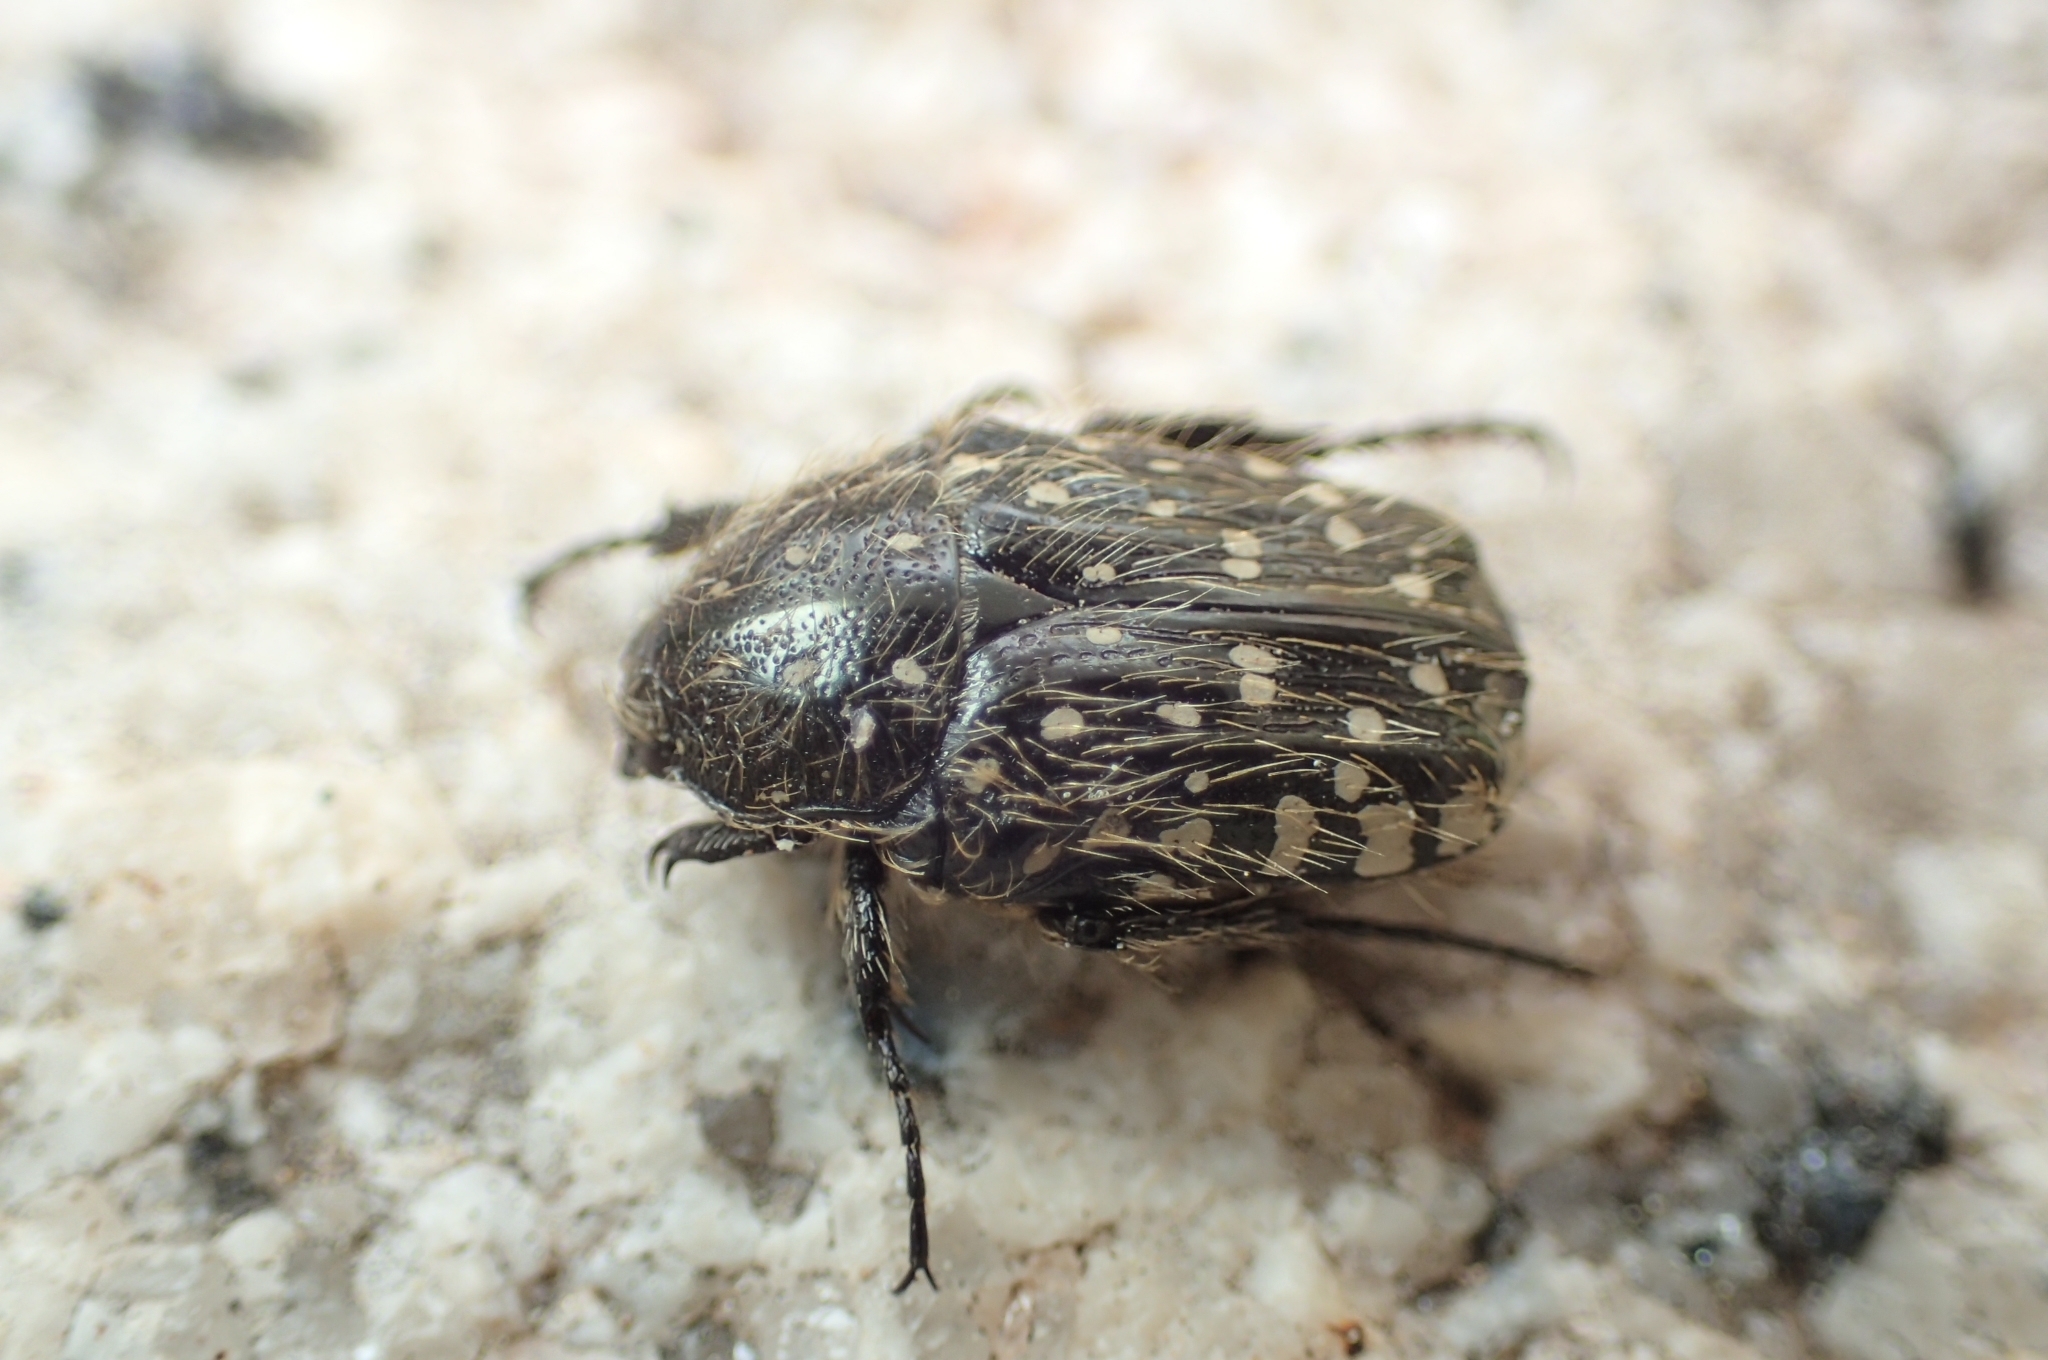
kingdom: Animalia
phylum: Arthropoda
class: Insecta
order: Coleoptera
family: Scarabaeidae
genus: Oxythyrea
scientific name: Oxythyrea funesta
